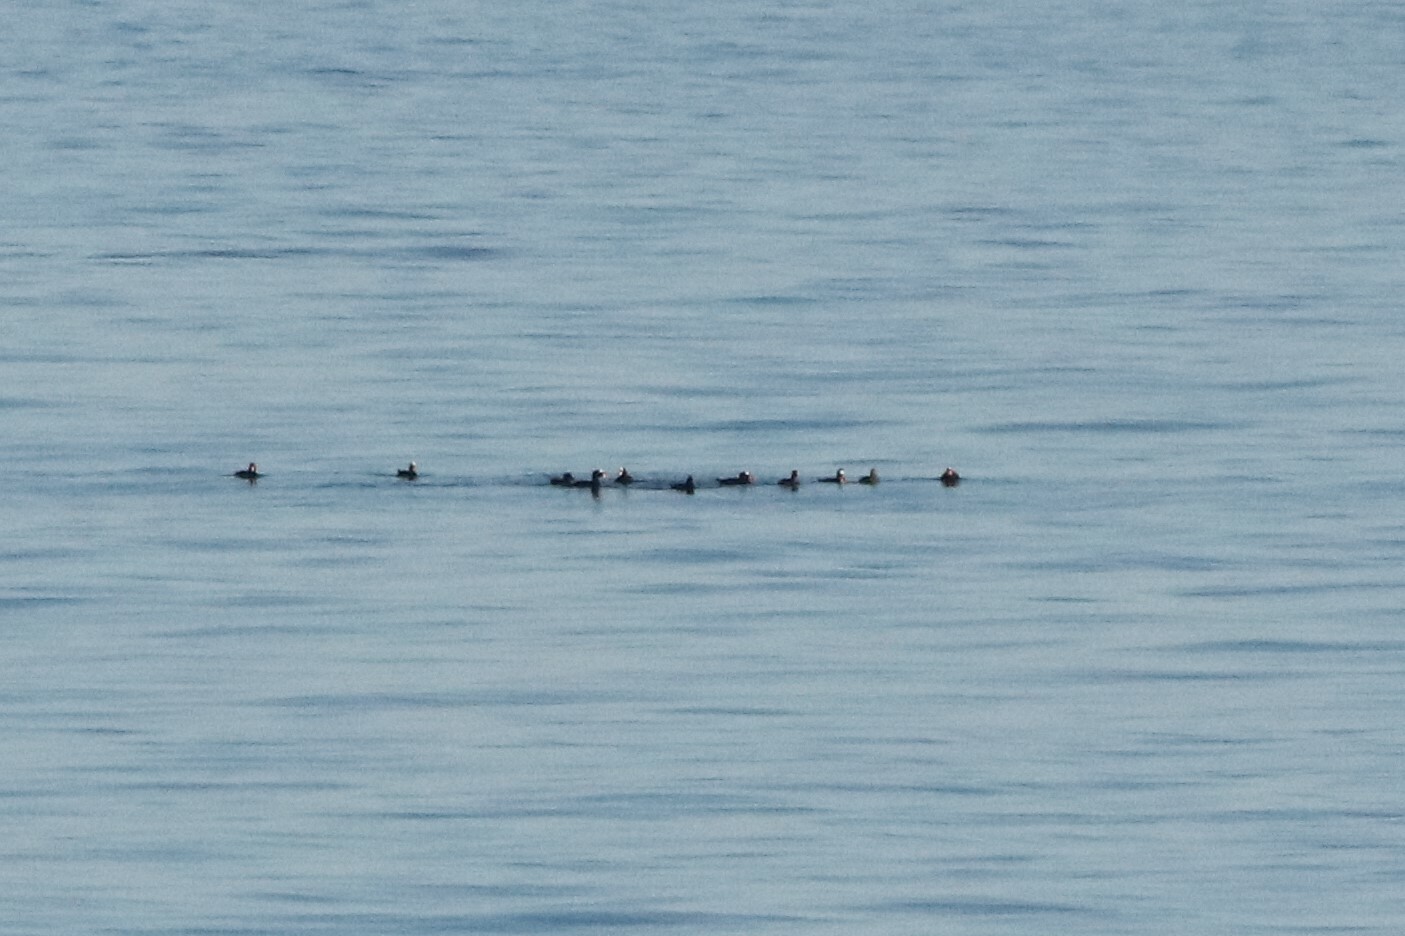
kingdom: Animalia
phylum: Chordata
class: Aves
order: Anseriformes
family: Anatidae
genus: Melanitta
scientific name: Melanitta perspicillata
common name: Surf scoter
